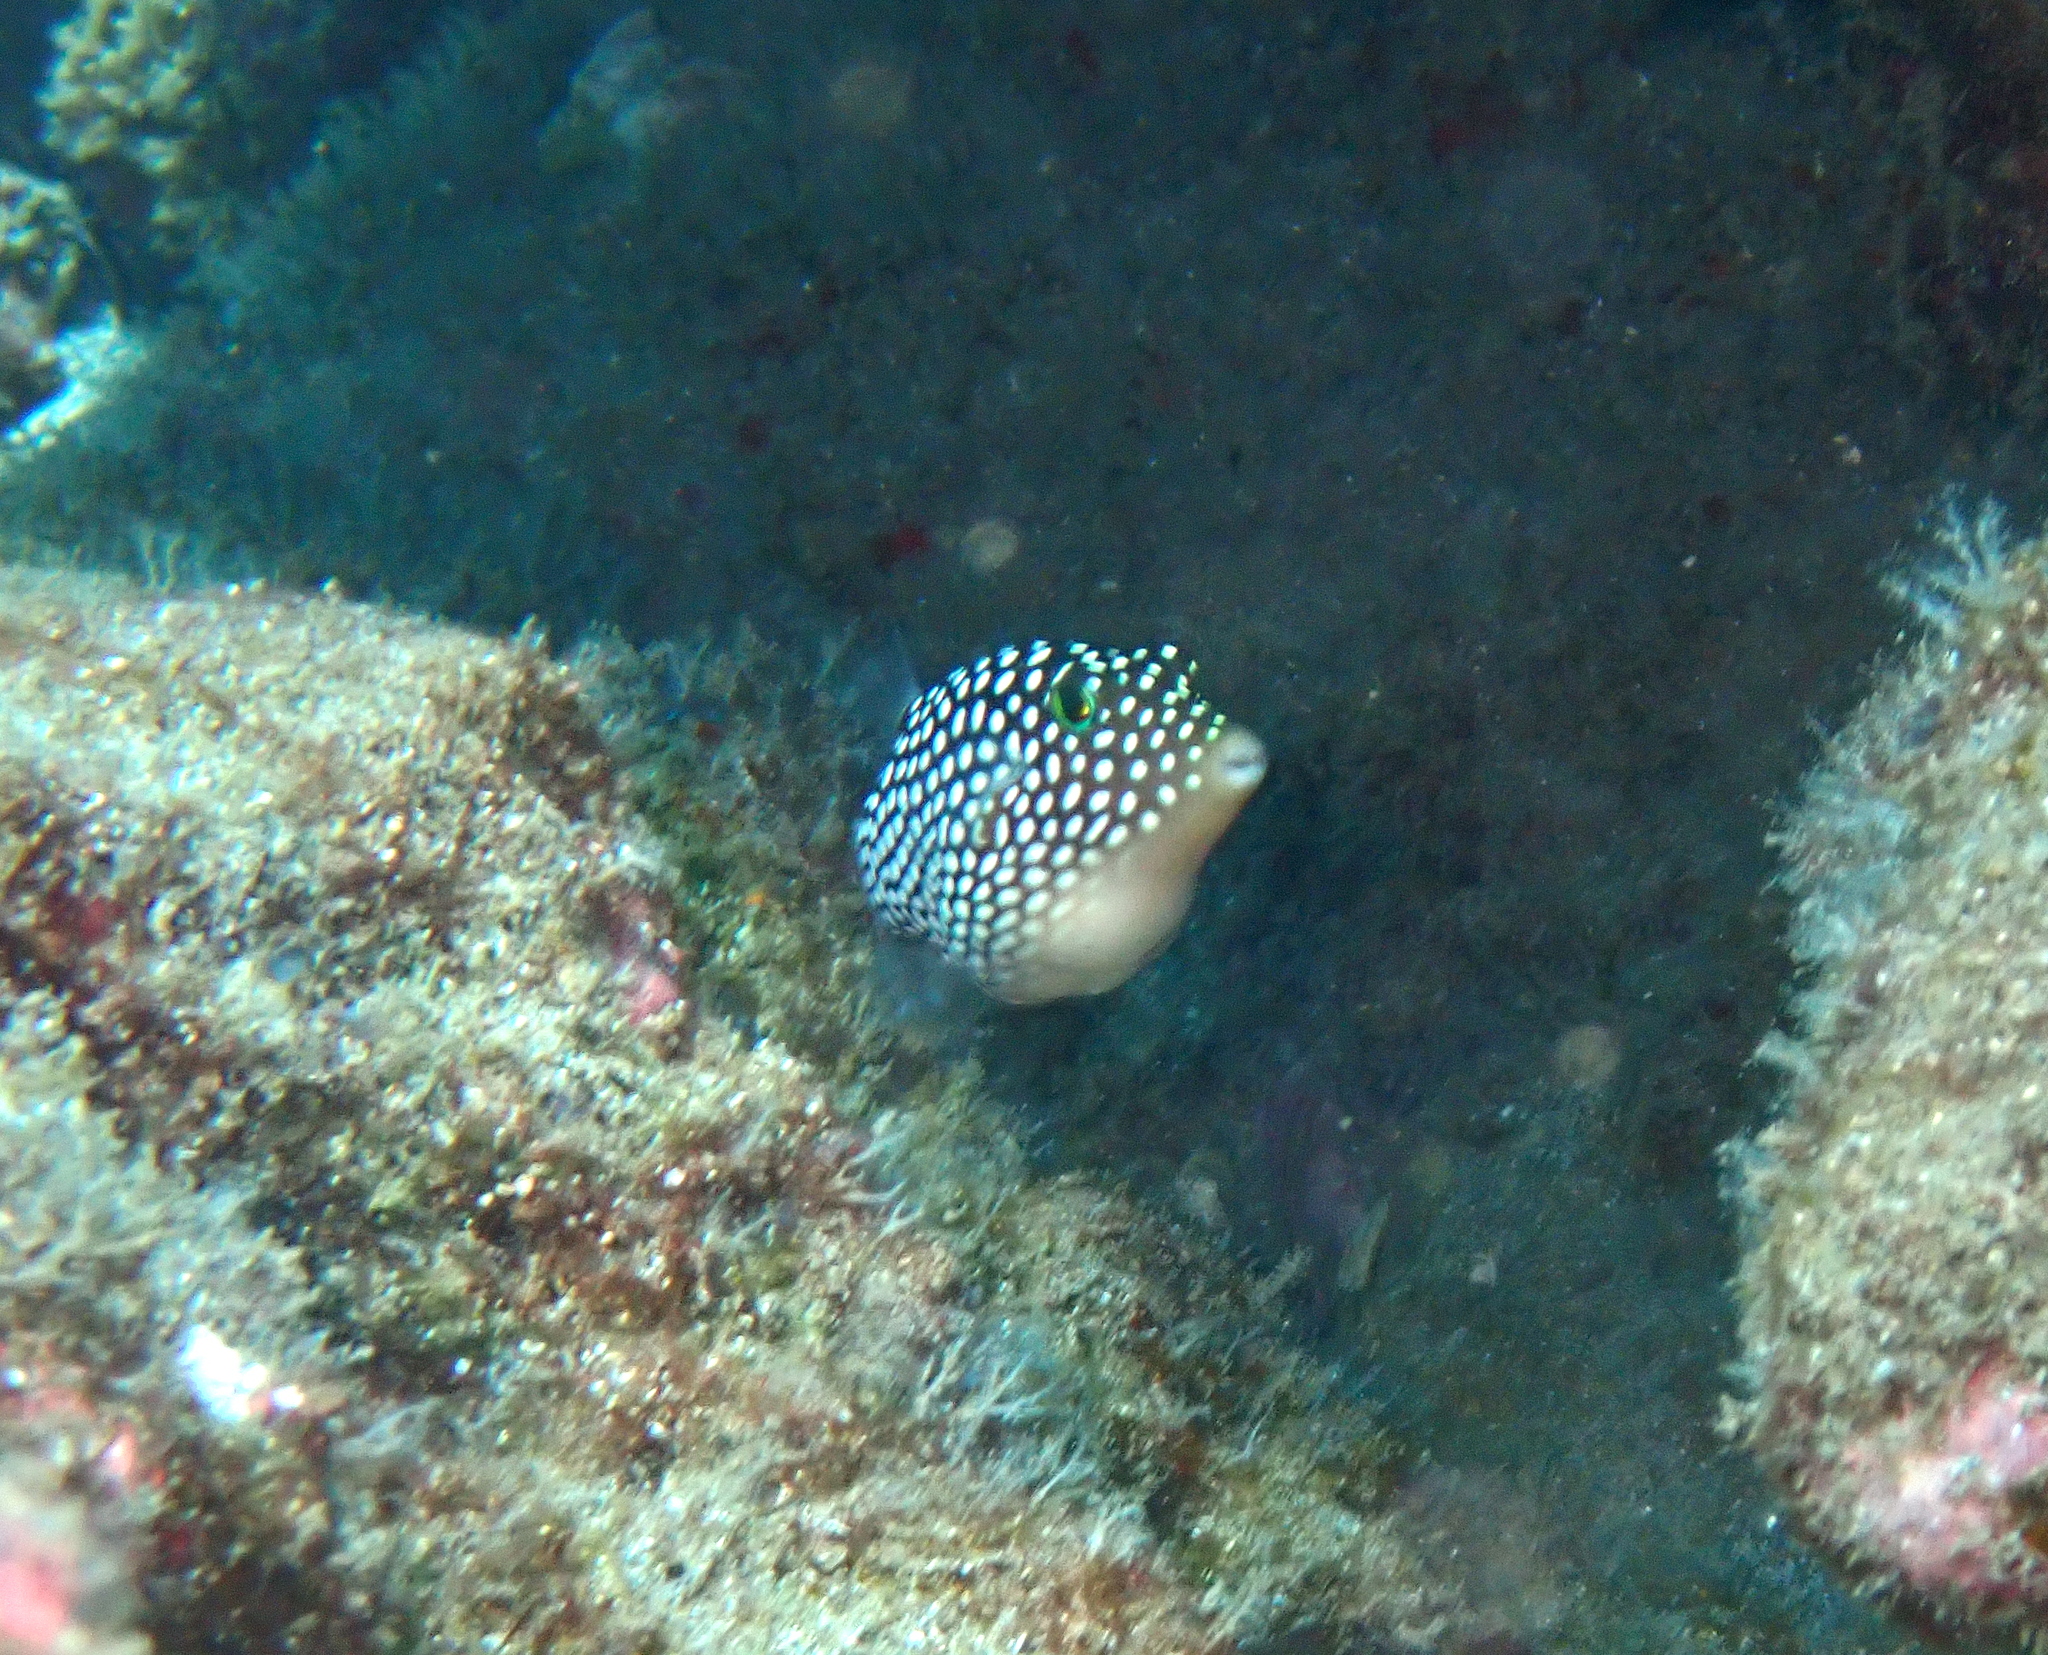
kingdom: Animalia
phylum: Chordata
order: Tetraodontiformes
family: Tetraodontidae
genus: Canthigaster
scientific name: Canthigaster jactator
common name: Hawaiian whitespotted toby
